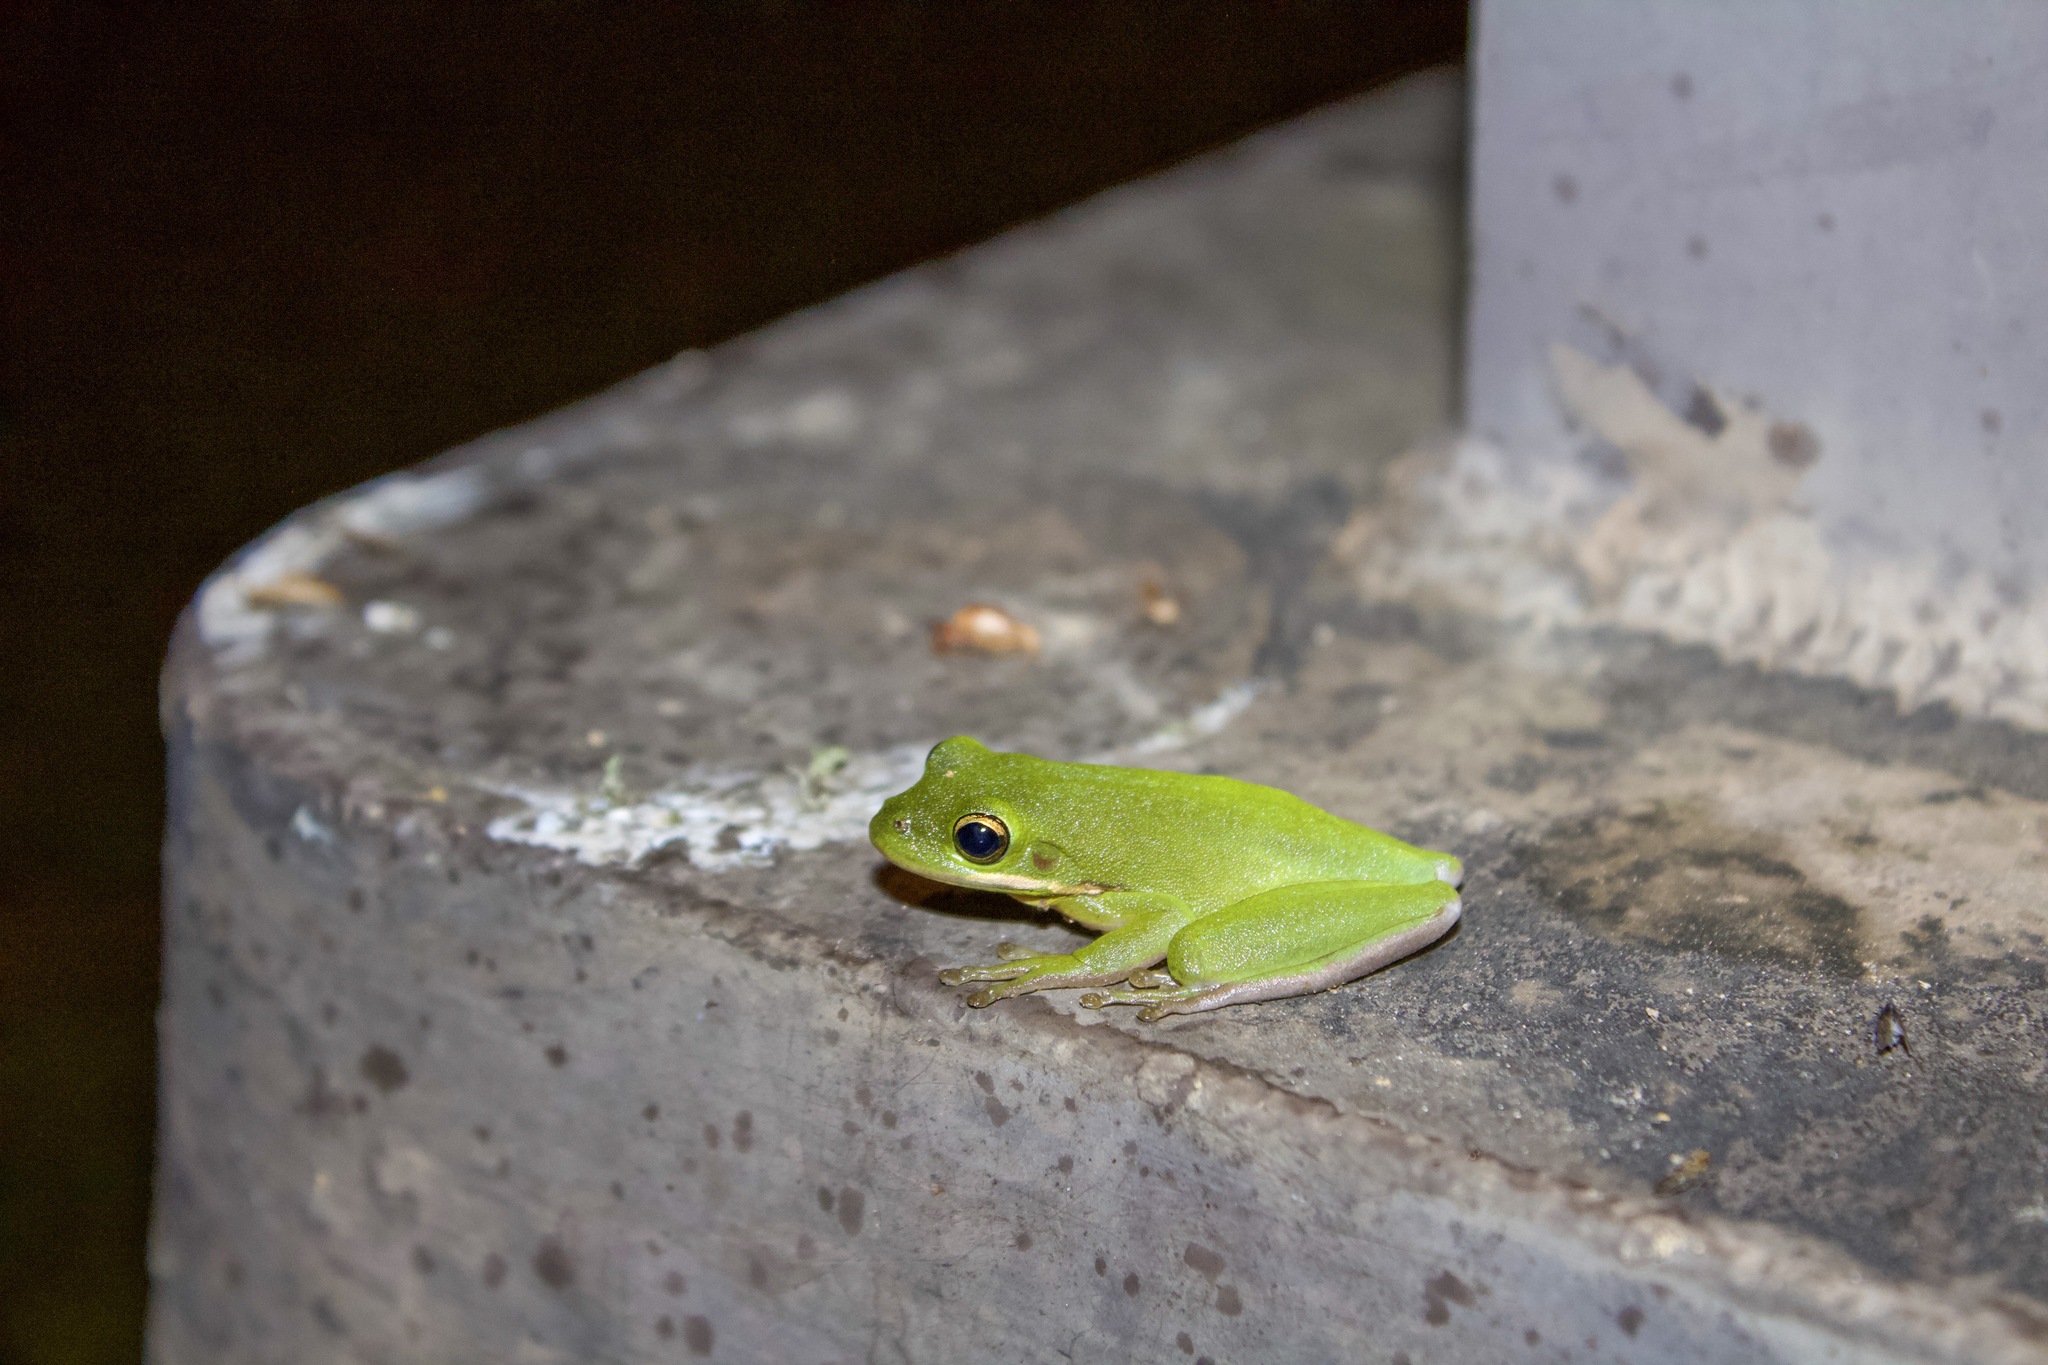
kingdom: Animalia
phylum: Chordata
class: Amphibia
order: Anura
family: Hylidae
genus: Dryophytes
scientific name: Dryophytes cinereus
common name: Green treefrog
